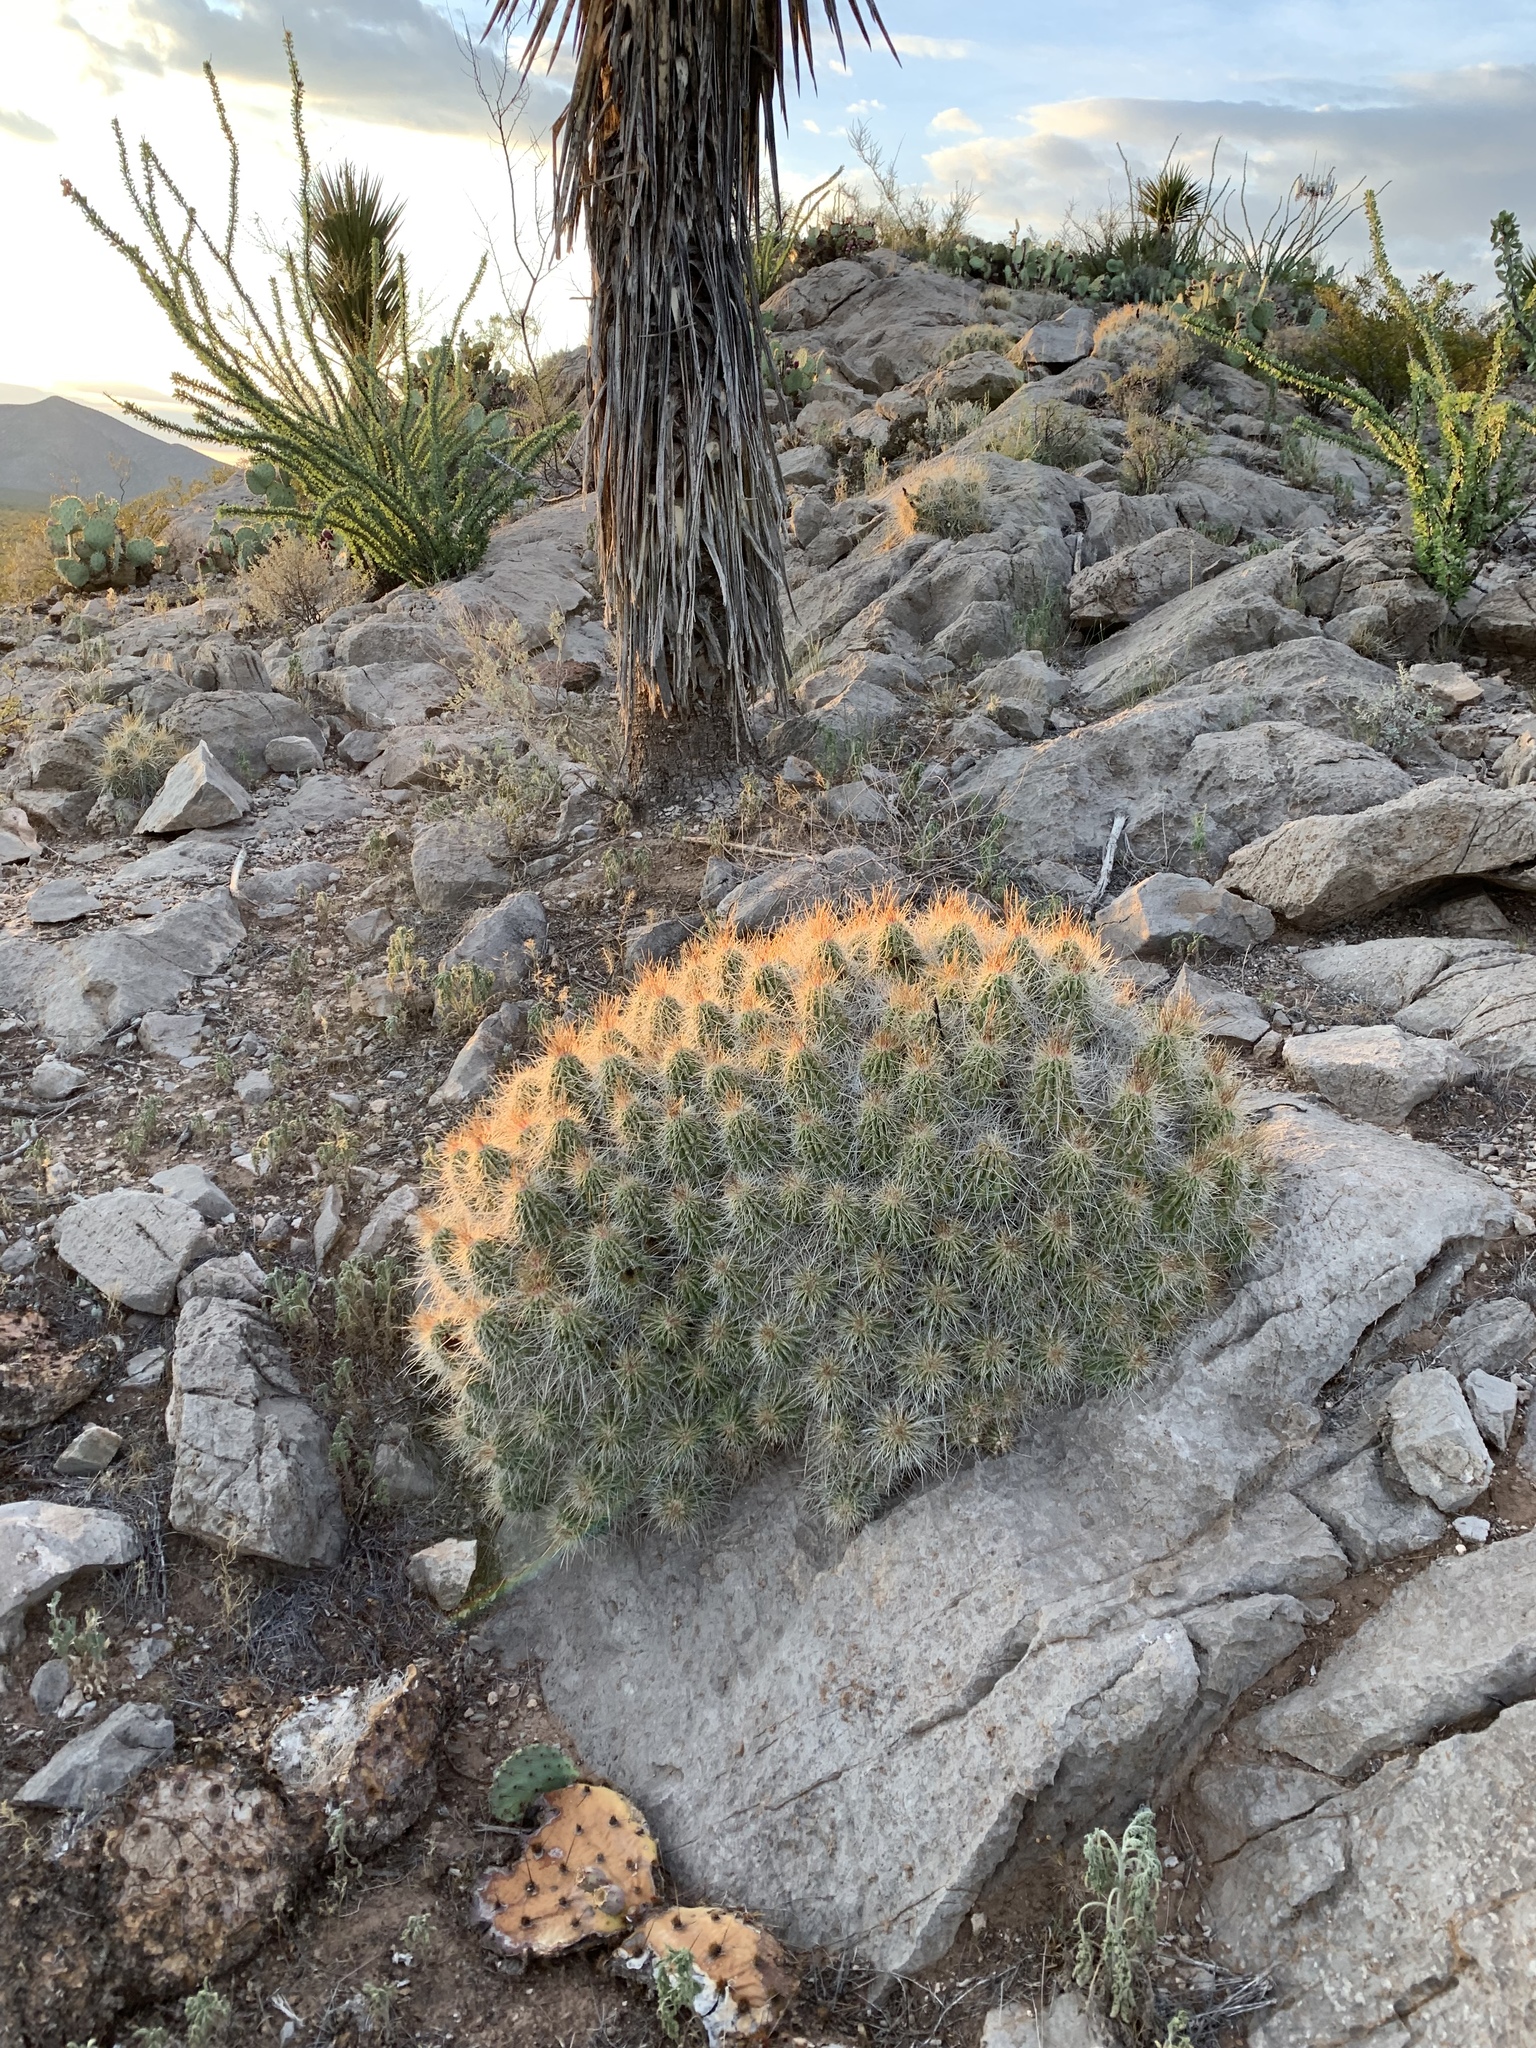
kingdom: Plantae
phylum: Tracheophyta
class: Magnoliopsida
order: Caryophyllales
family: Cactaceae
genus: Echinocereus
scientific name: Echinocereus stramineus
